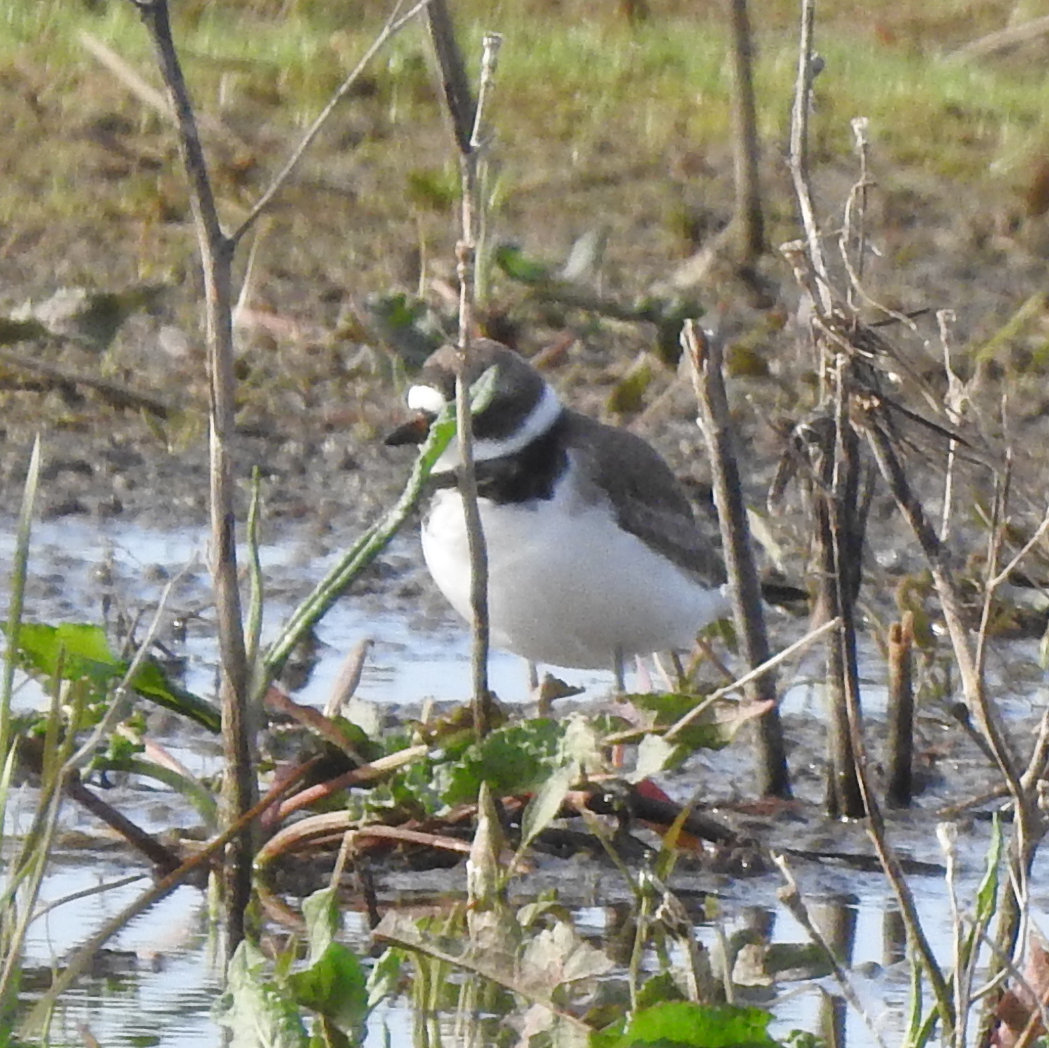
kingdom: Animalia
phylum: Chordata
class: Aves
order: Charadriiformes
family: Charadriidae
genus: Charadrius
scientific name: Charadrius semipalmatus
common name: Semipalmated plover
